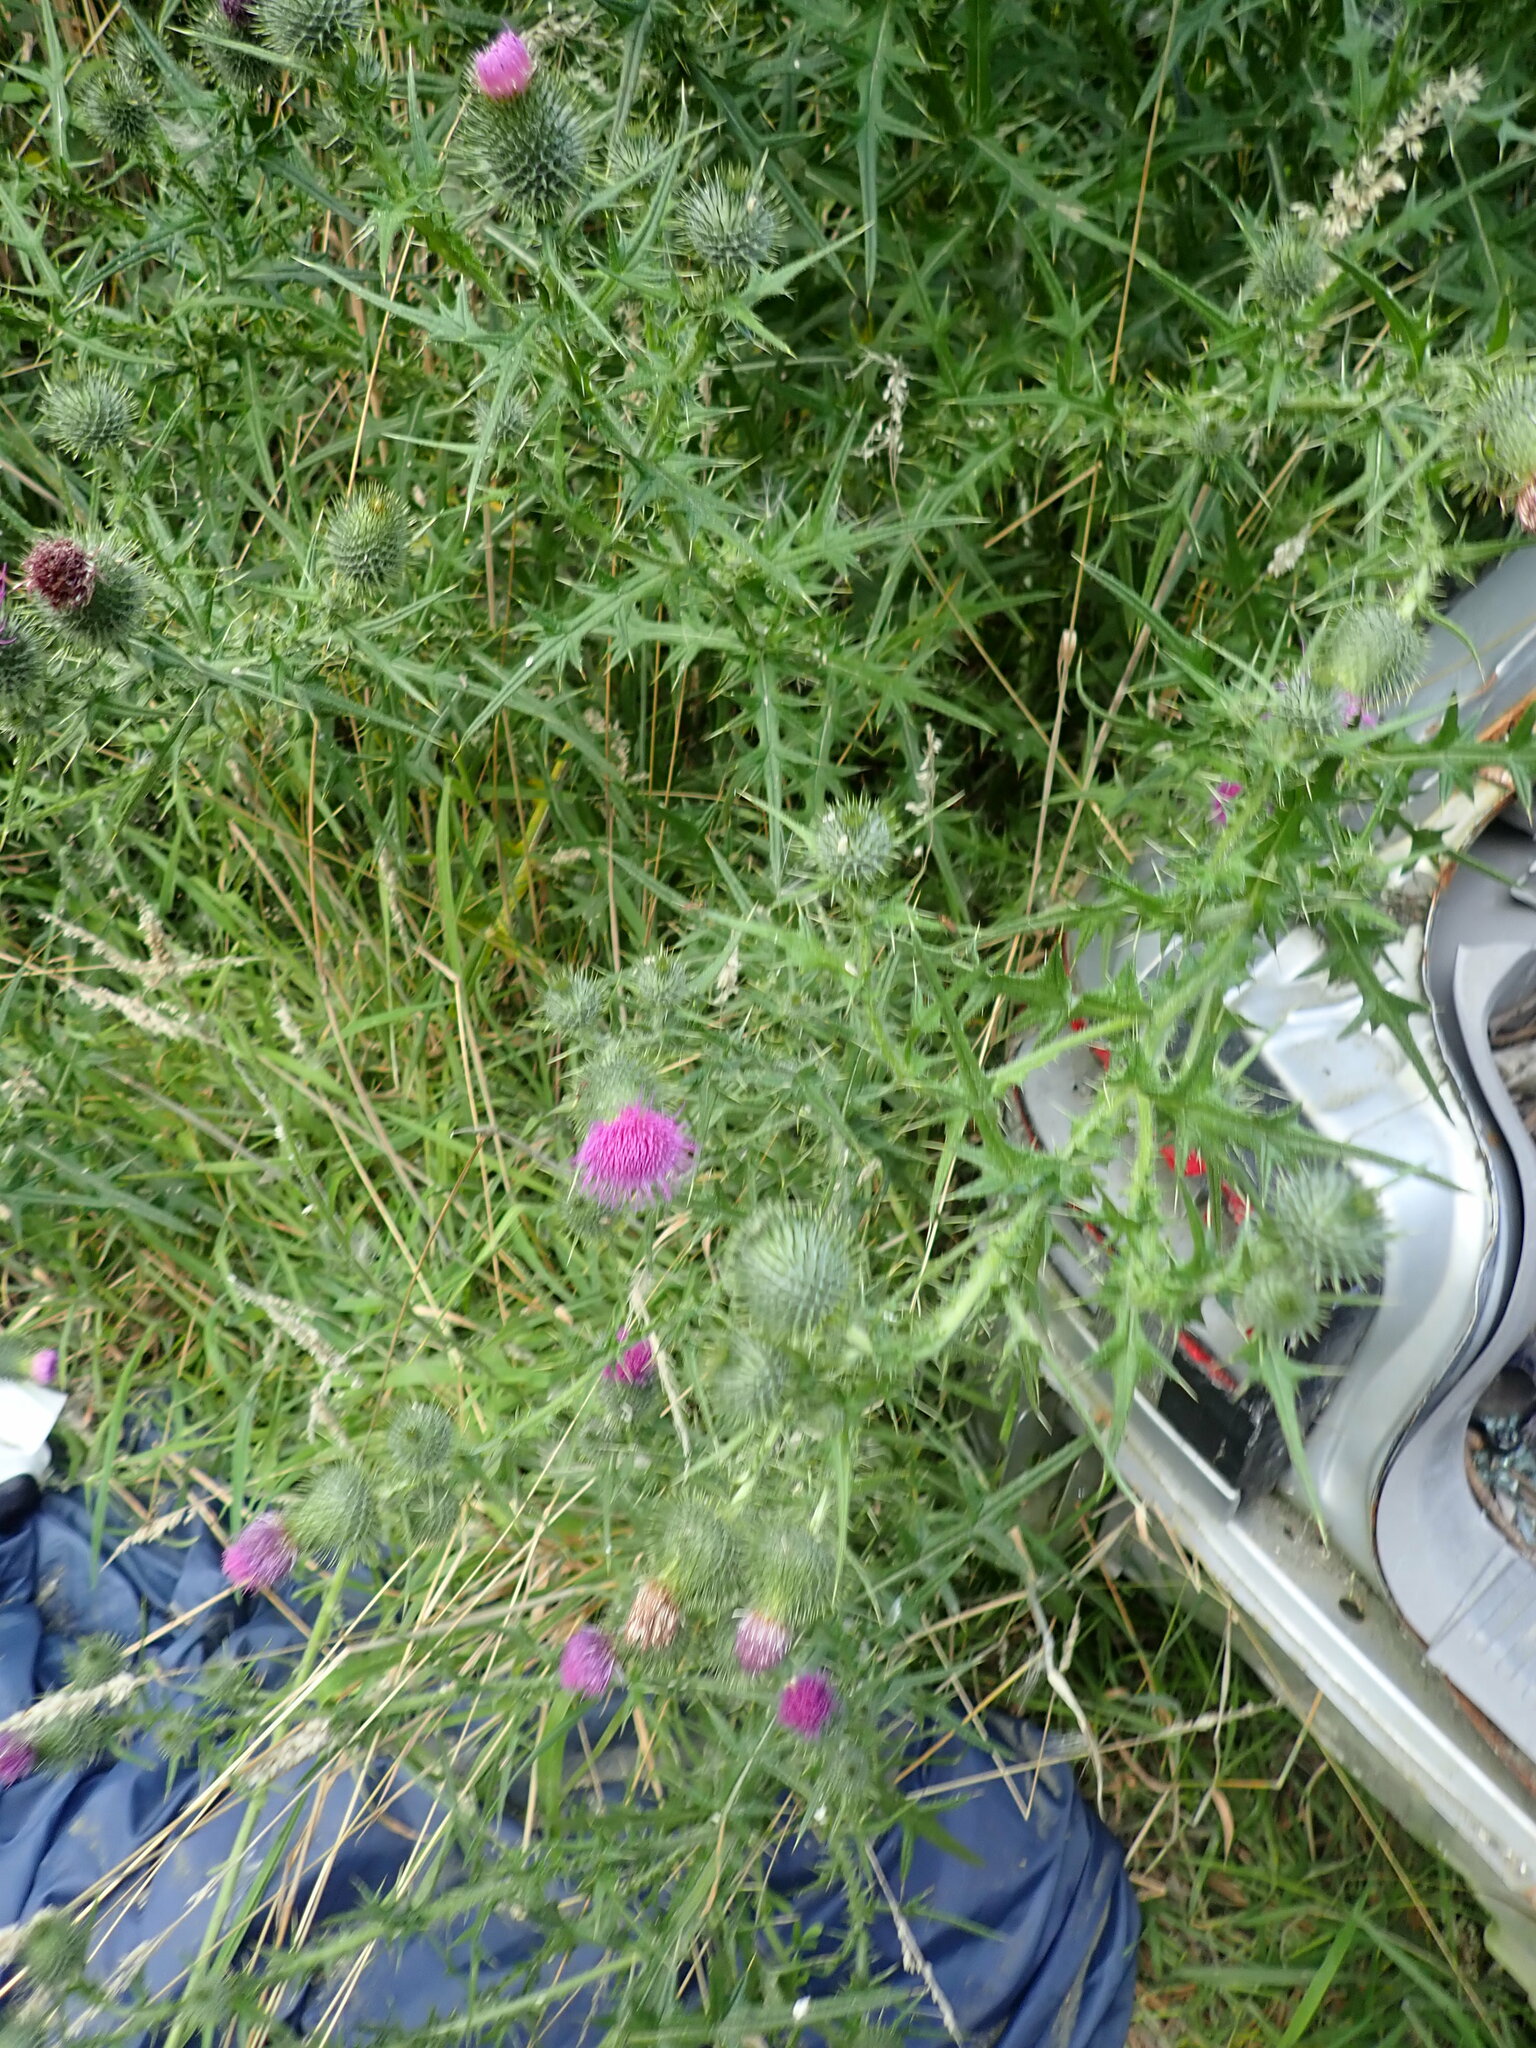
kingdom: Plantae
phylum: Tracheophyta
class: Magnoliopsida
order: Asterales
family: Asteraceae
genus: Cirsium
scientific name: Cirsium vulgare
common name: Bull thistle
